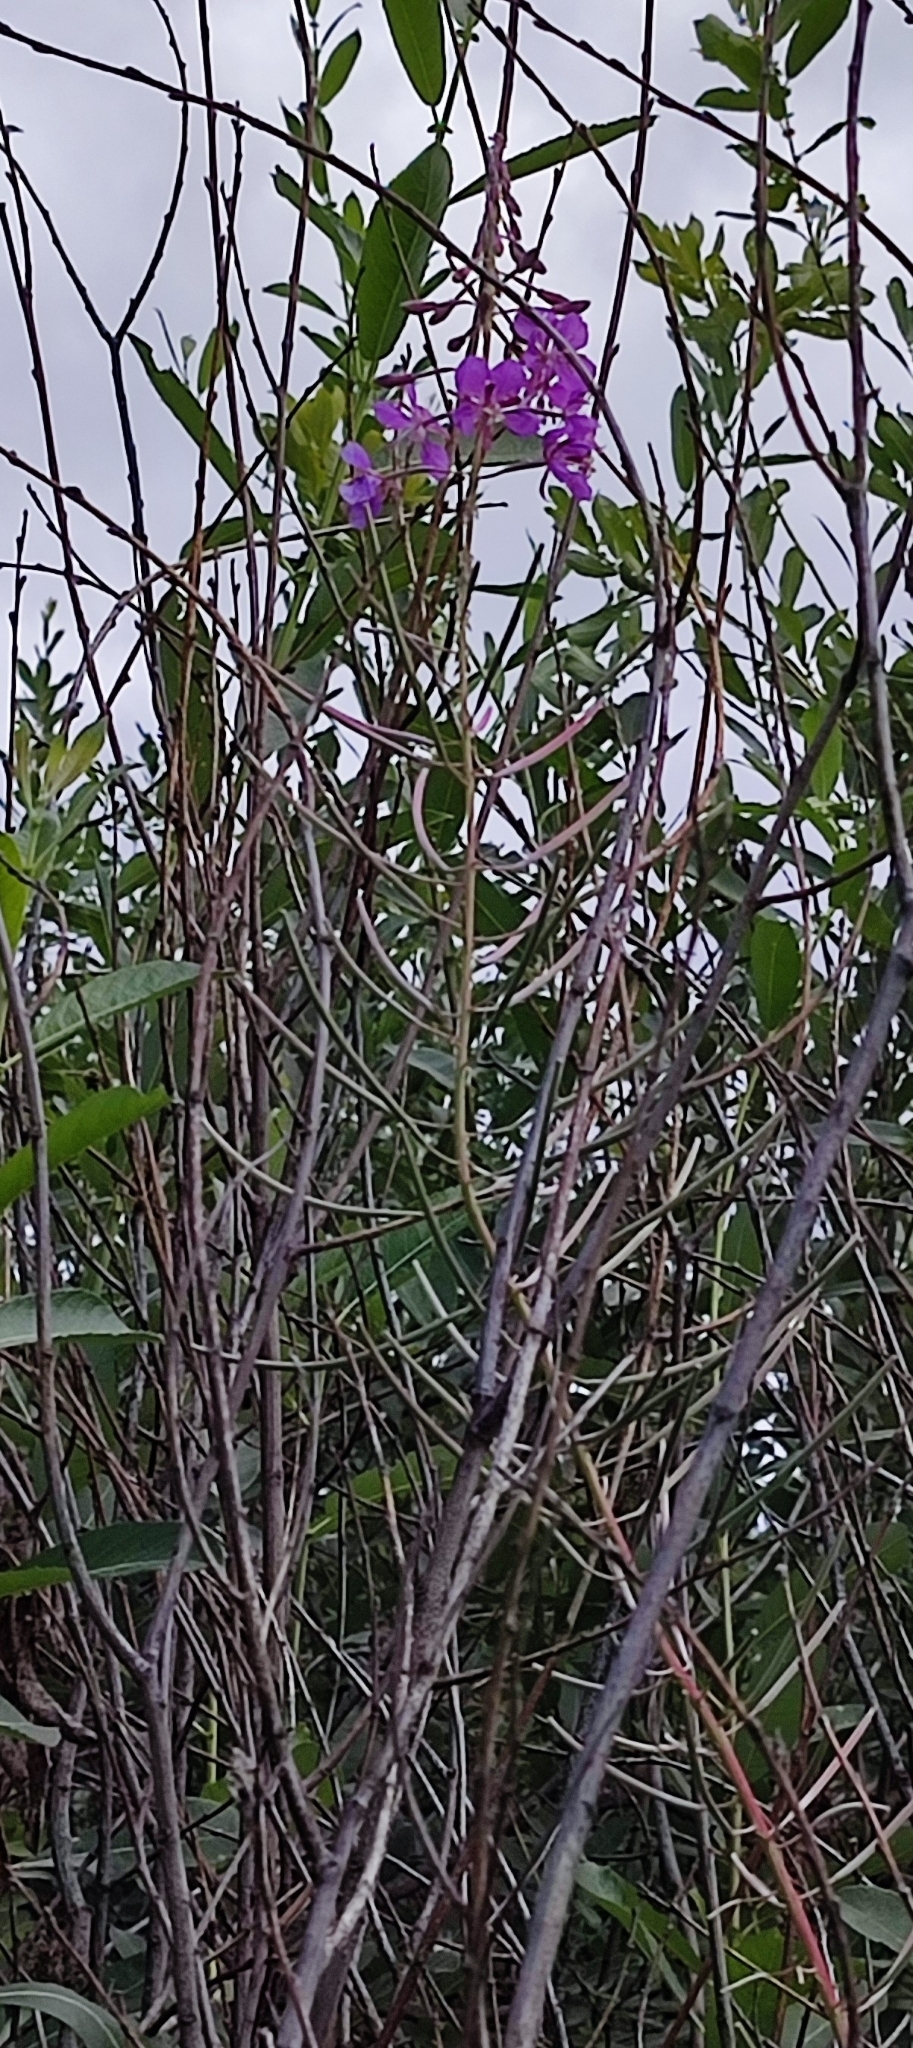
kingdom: Plantae
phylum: Tracheophyta
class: Magnoliopsida
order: Myrtales
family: Onagraceae
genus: Chamaenerion
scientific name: Chamaenerion angustifolium
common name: Fireweed
